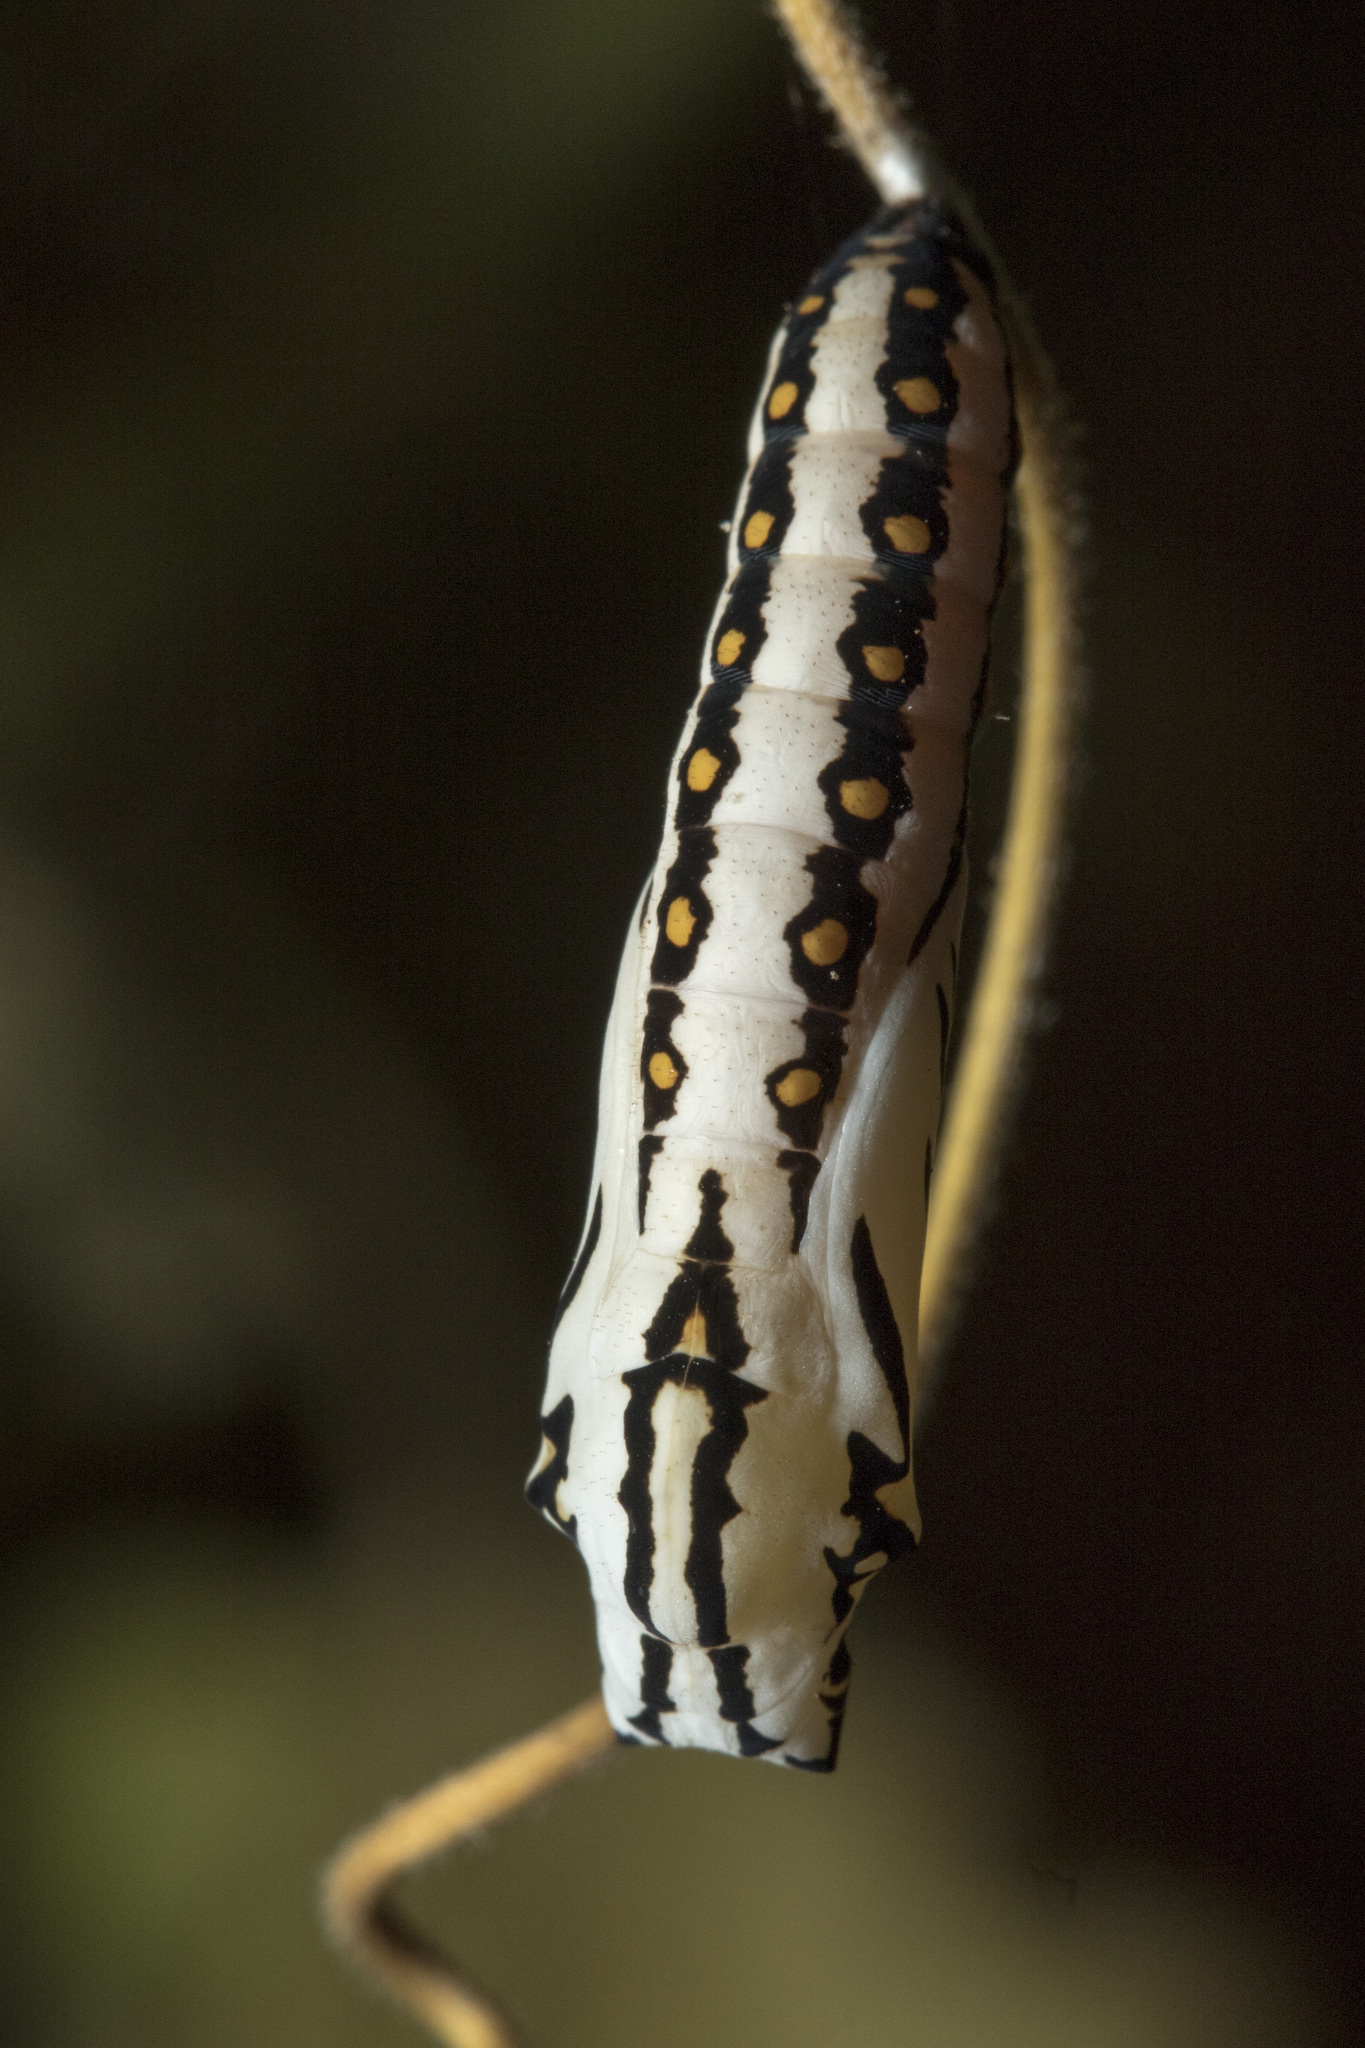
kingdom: Animalia
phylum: Arthropoda
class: Insecta
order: Lepidoptera
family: Nymphalidae
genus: Acraea
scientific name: Acraea terpsicore
